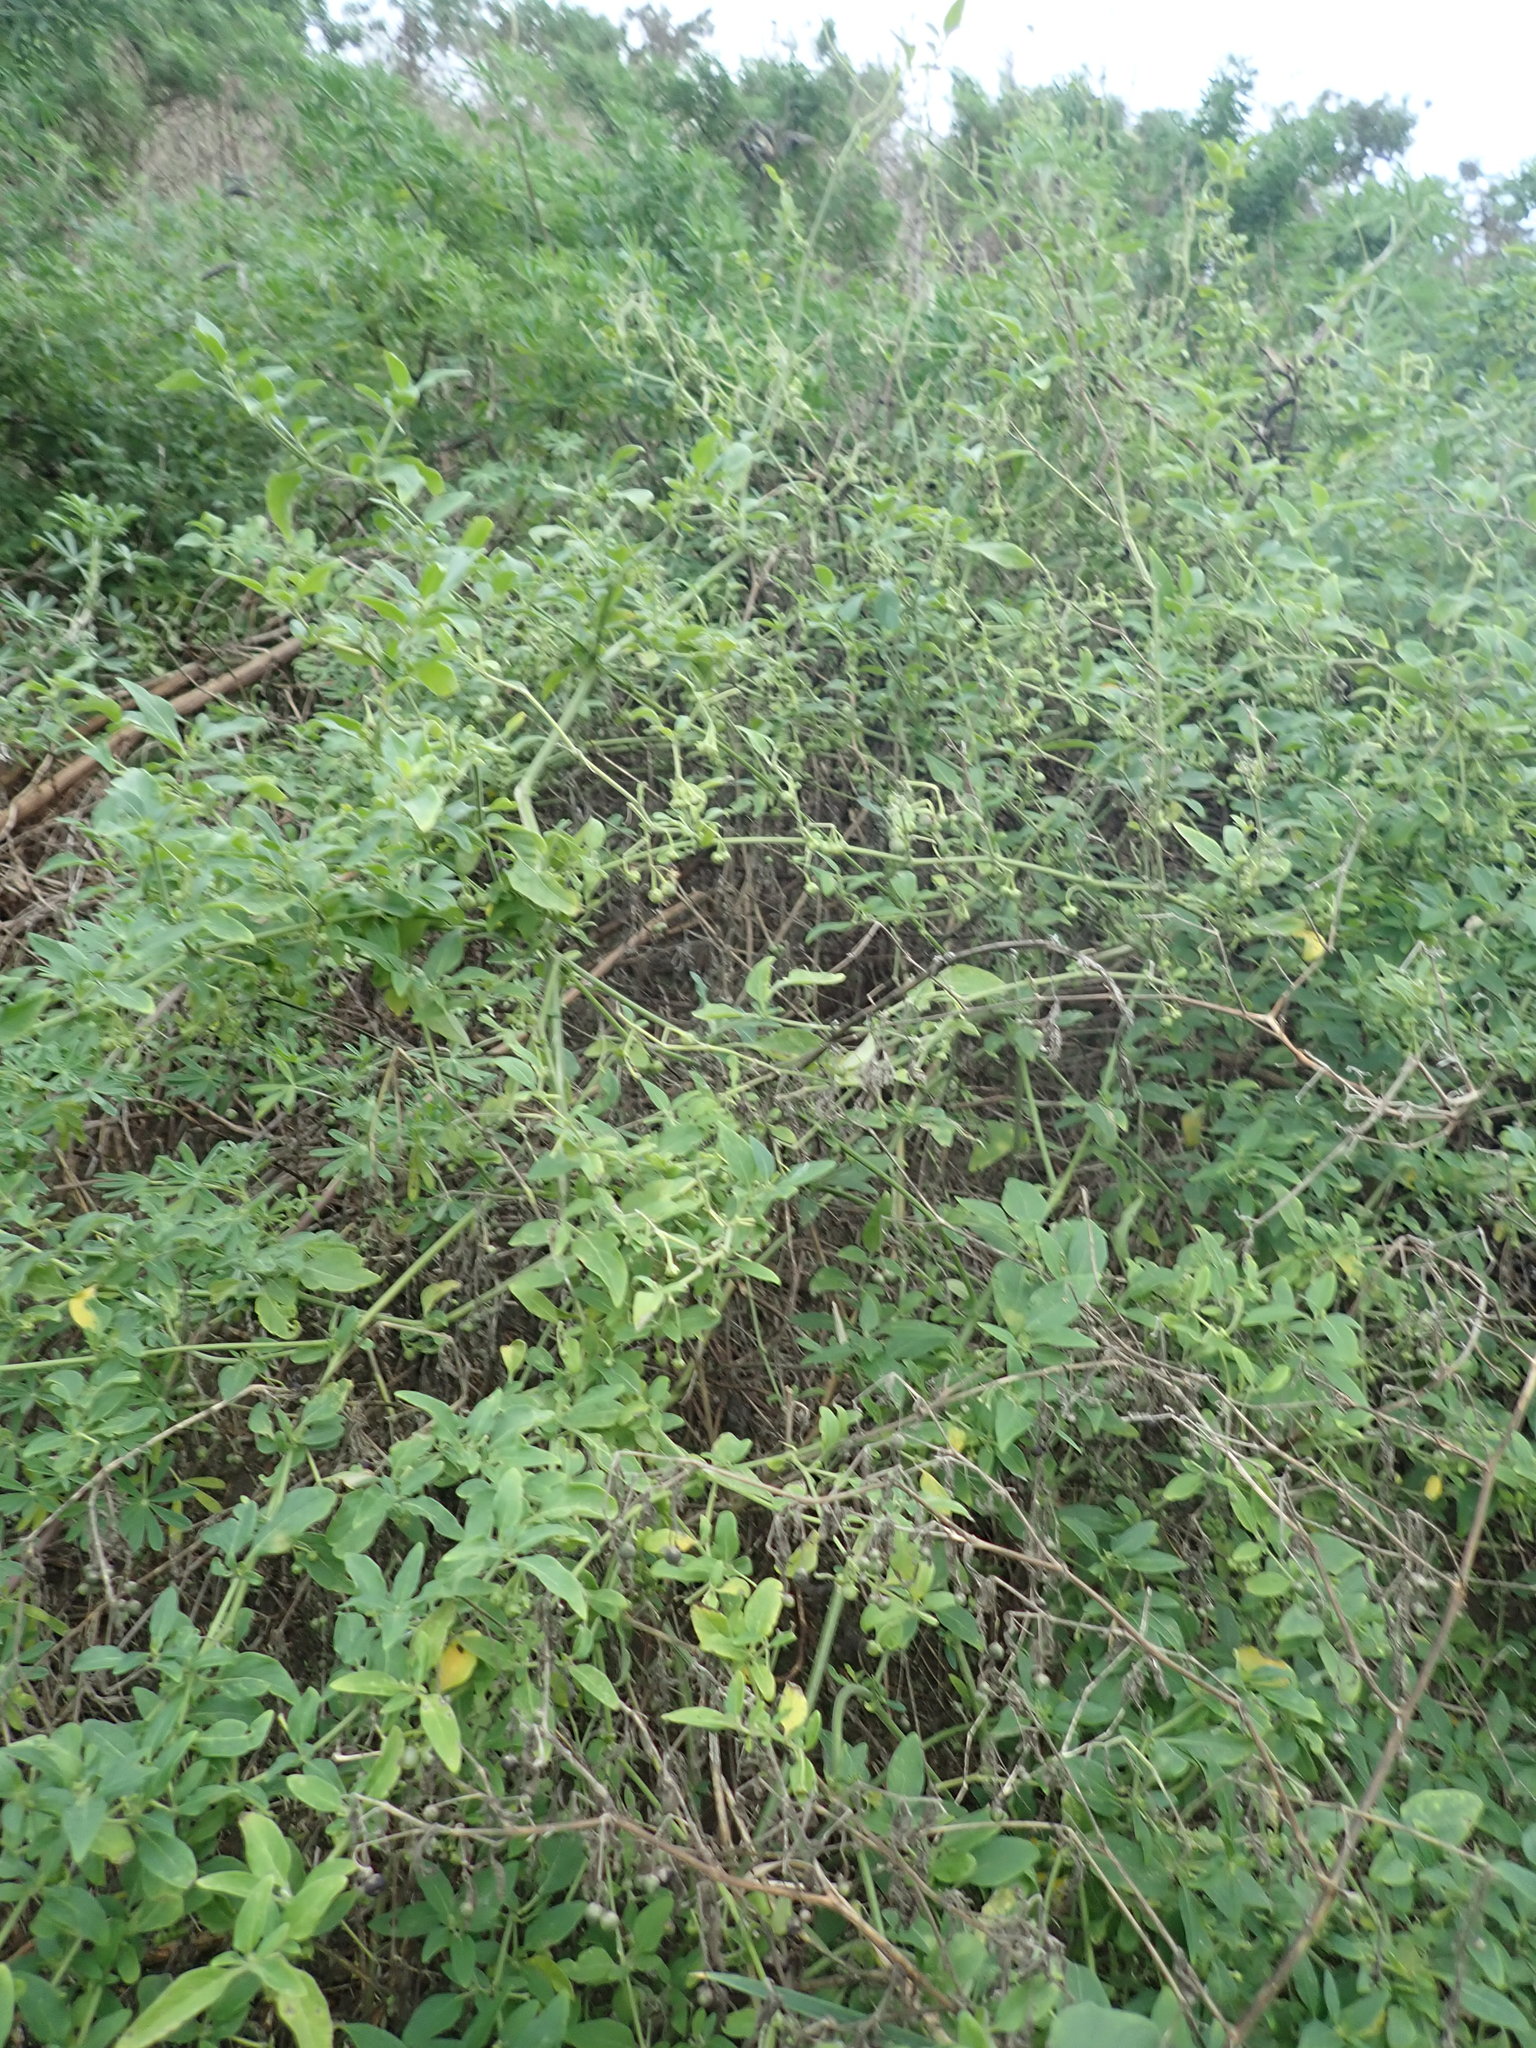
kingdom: Plantae
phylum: Tracheophyta
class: Magnoliopsida
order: Solanales
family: Solanaceae
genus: Solanum
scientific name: Solanum chenopodioides
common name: Tall nightshade
